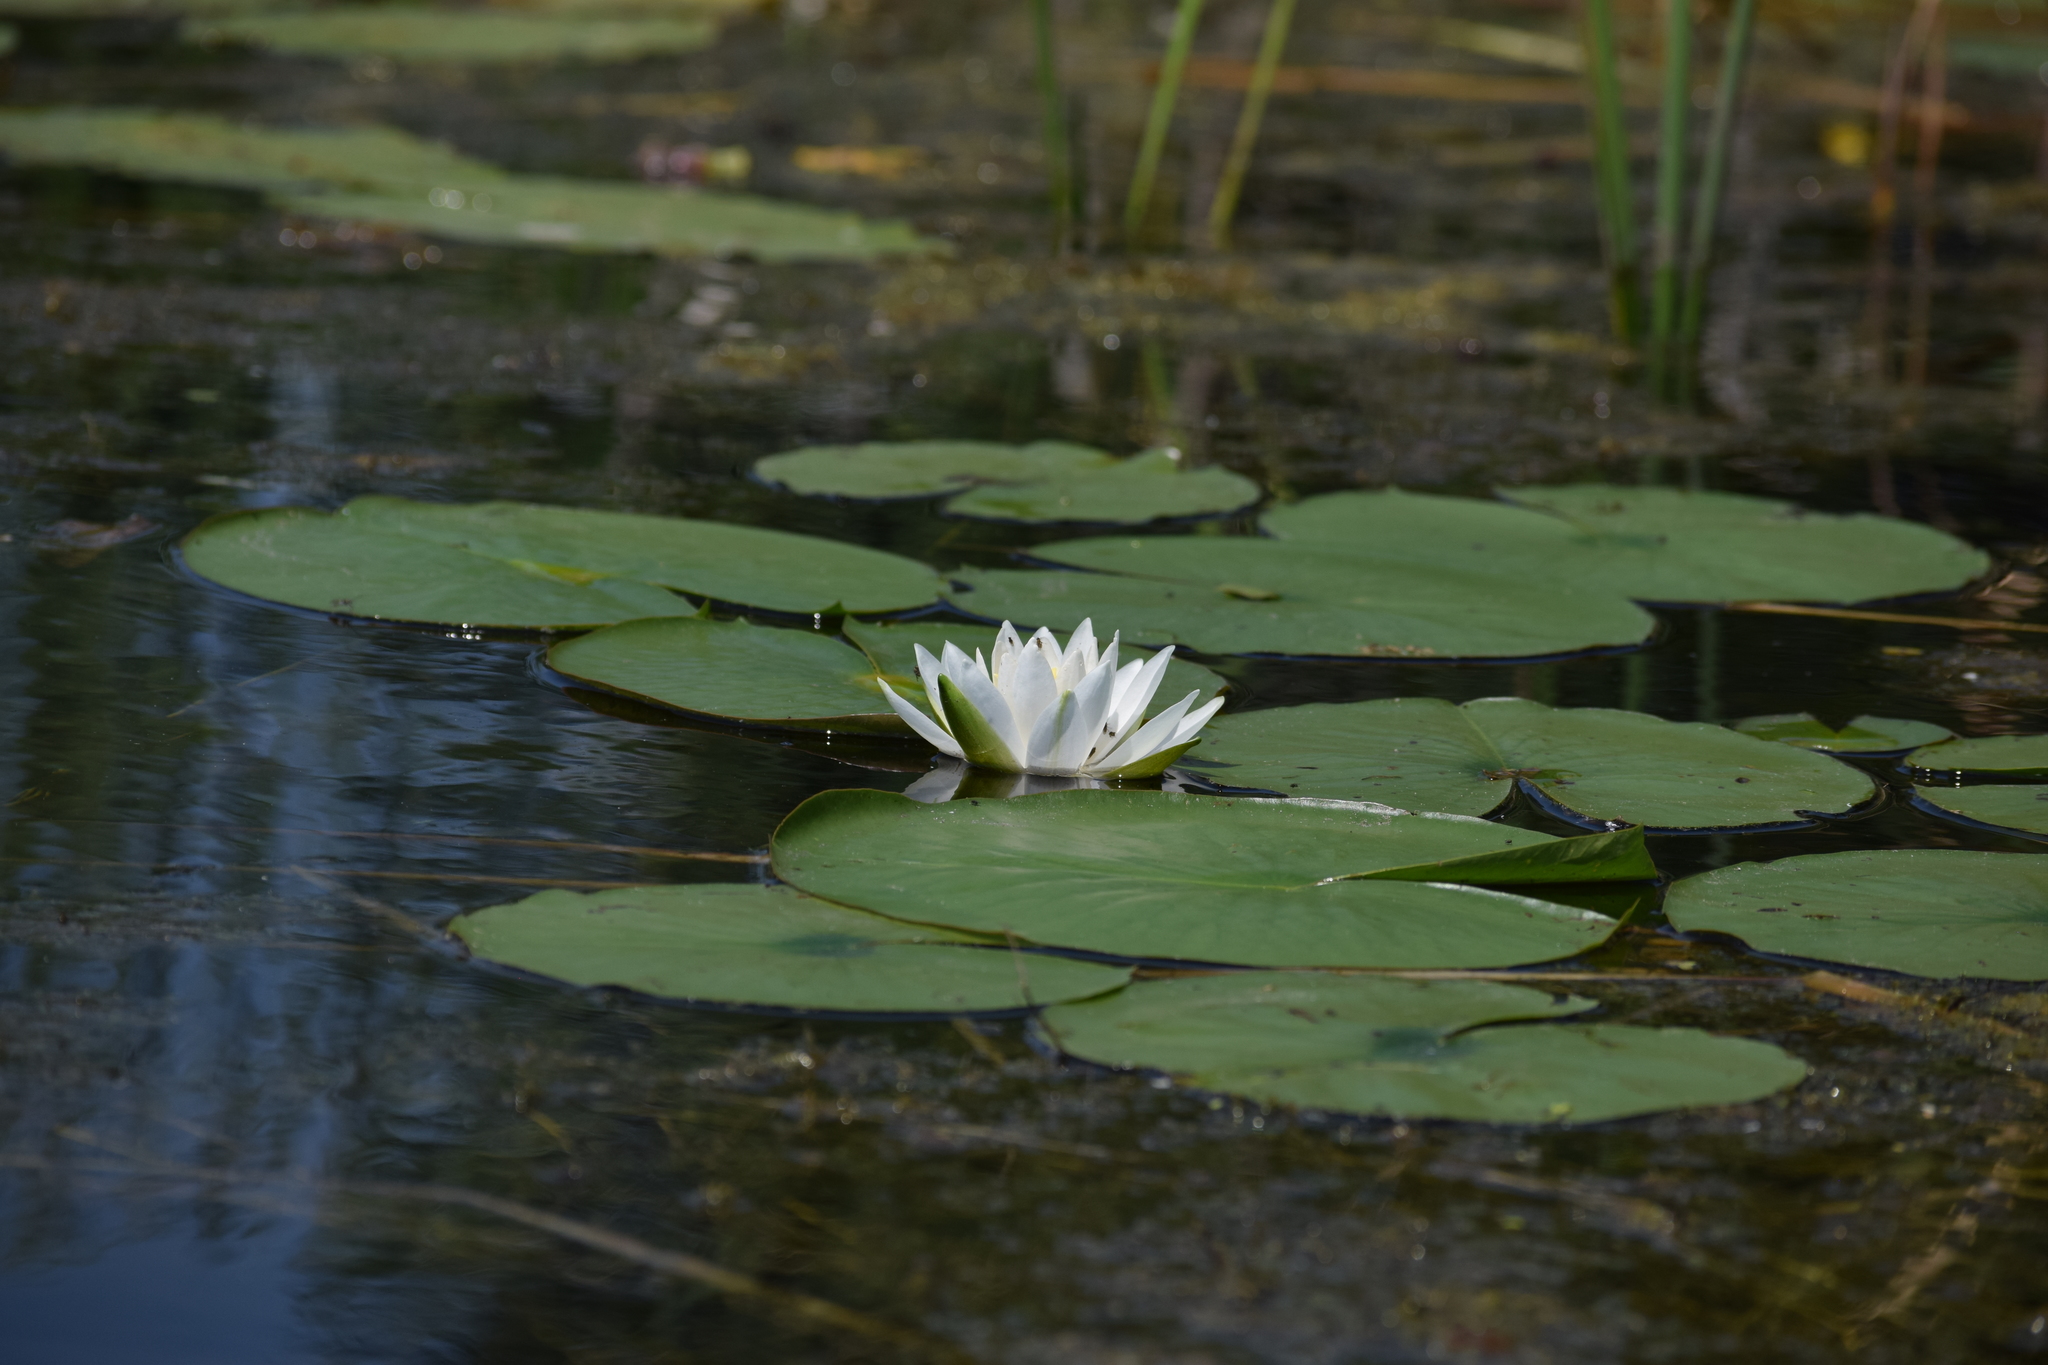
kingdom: Plantae
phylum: Tracheophyta
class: Magnoliopsida
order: Nymphaeales
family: Nymphaeaceae
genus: Nymphaea
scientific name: Nymphaea odorata
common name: Fragrant water-lily
